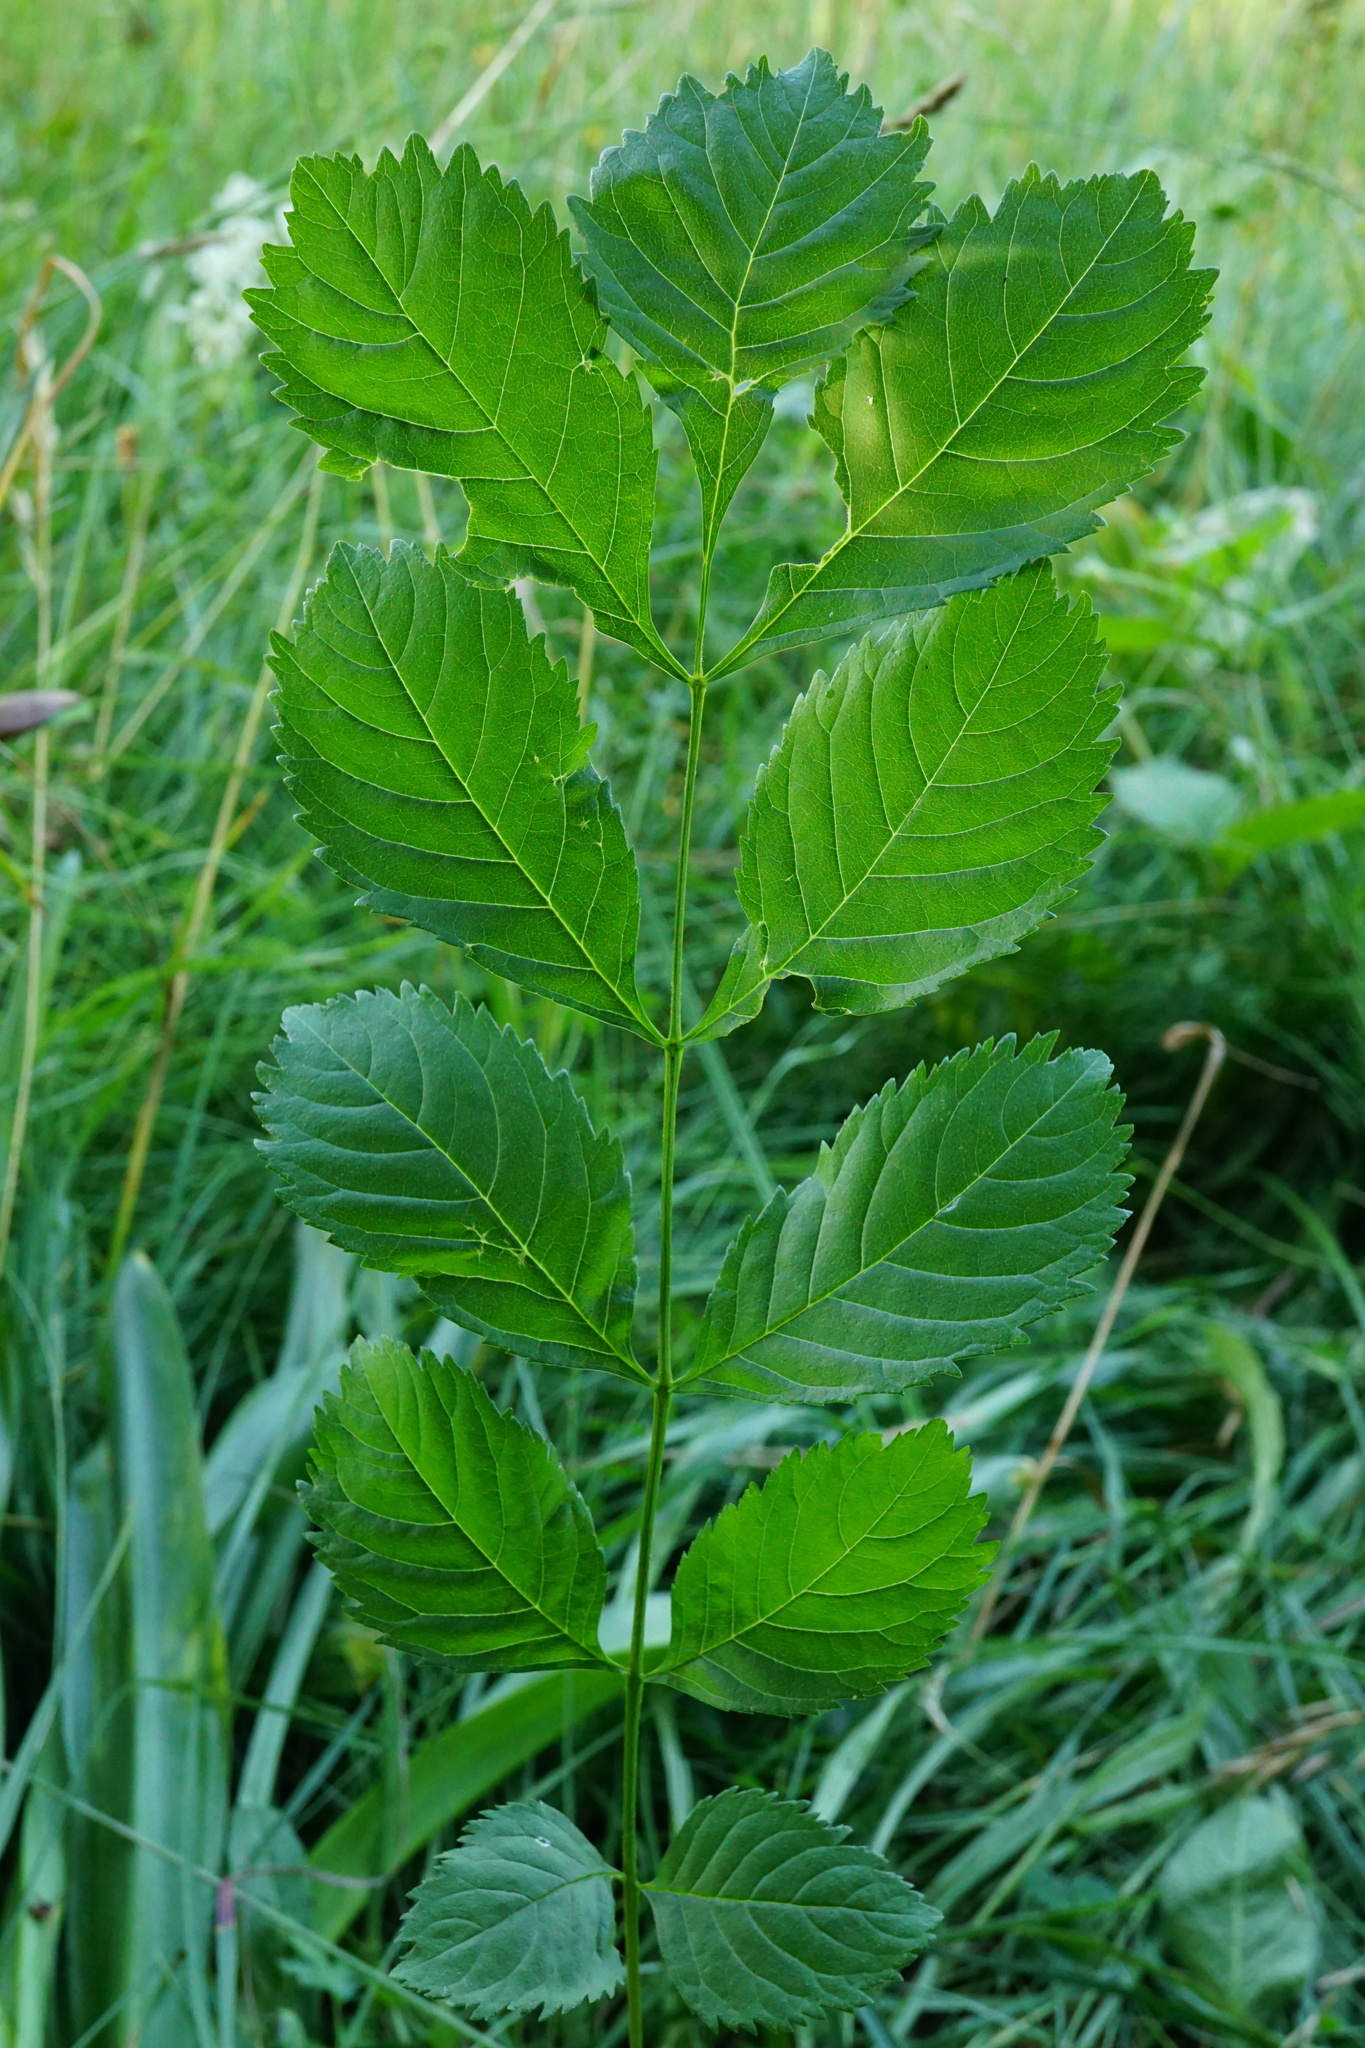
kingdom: Plantae
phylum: Tracheophyta
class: Magnoliopsida
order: Lamiales
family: Oleaceae
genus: Fraxinus
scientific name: Fraxinus excelsior
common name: European ash
